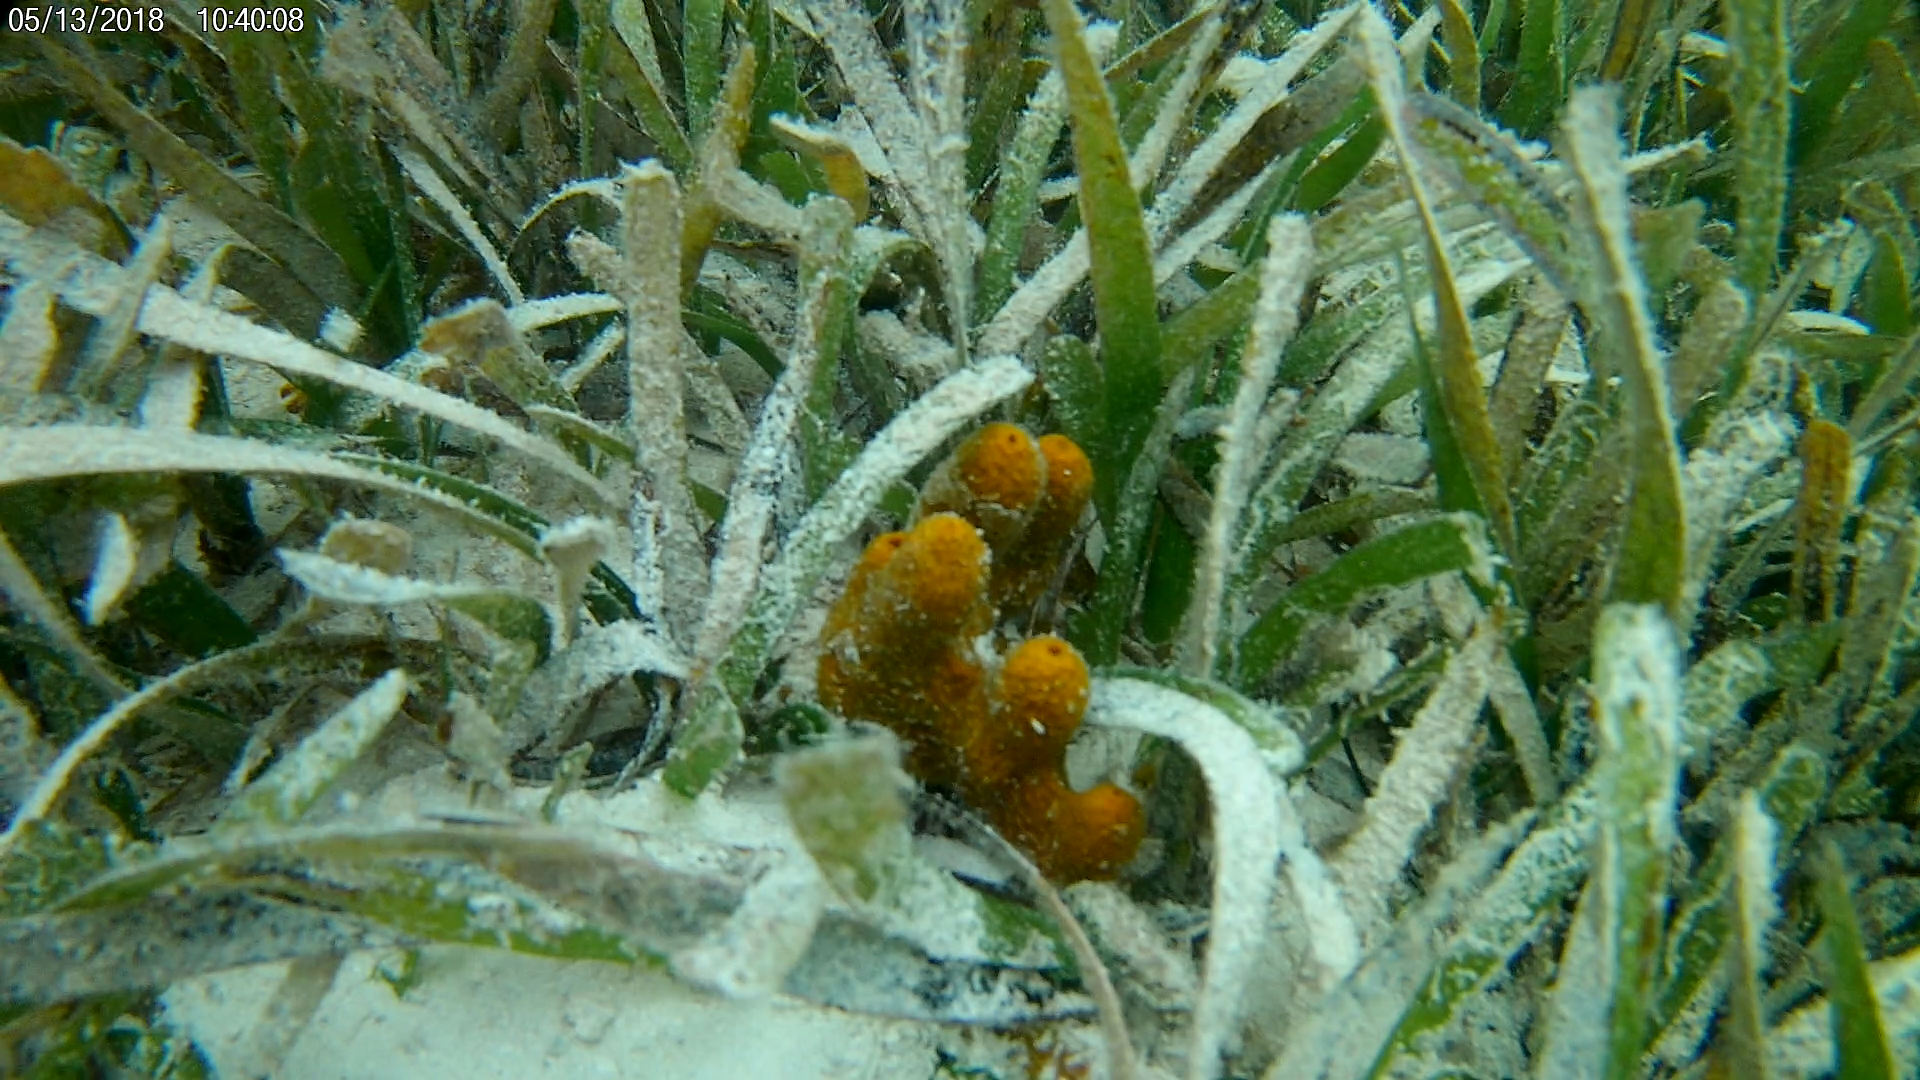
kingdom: Animalia
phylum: Porifera
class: Demospongiae
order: Verongiida
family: Aplysinidae
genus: Aplysina
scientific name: Aplysina fulva
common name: Scattered pore rope sponge
